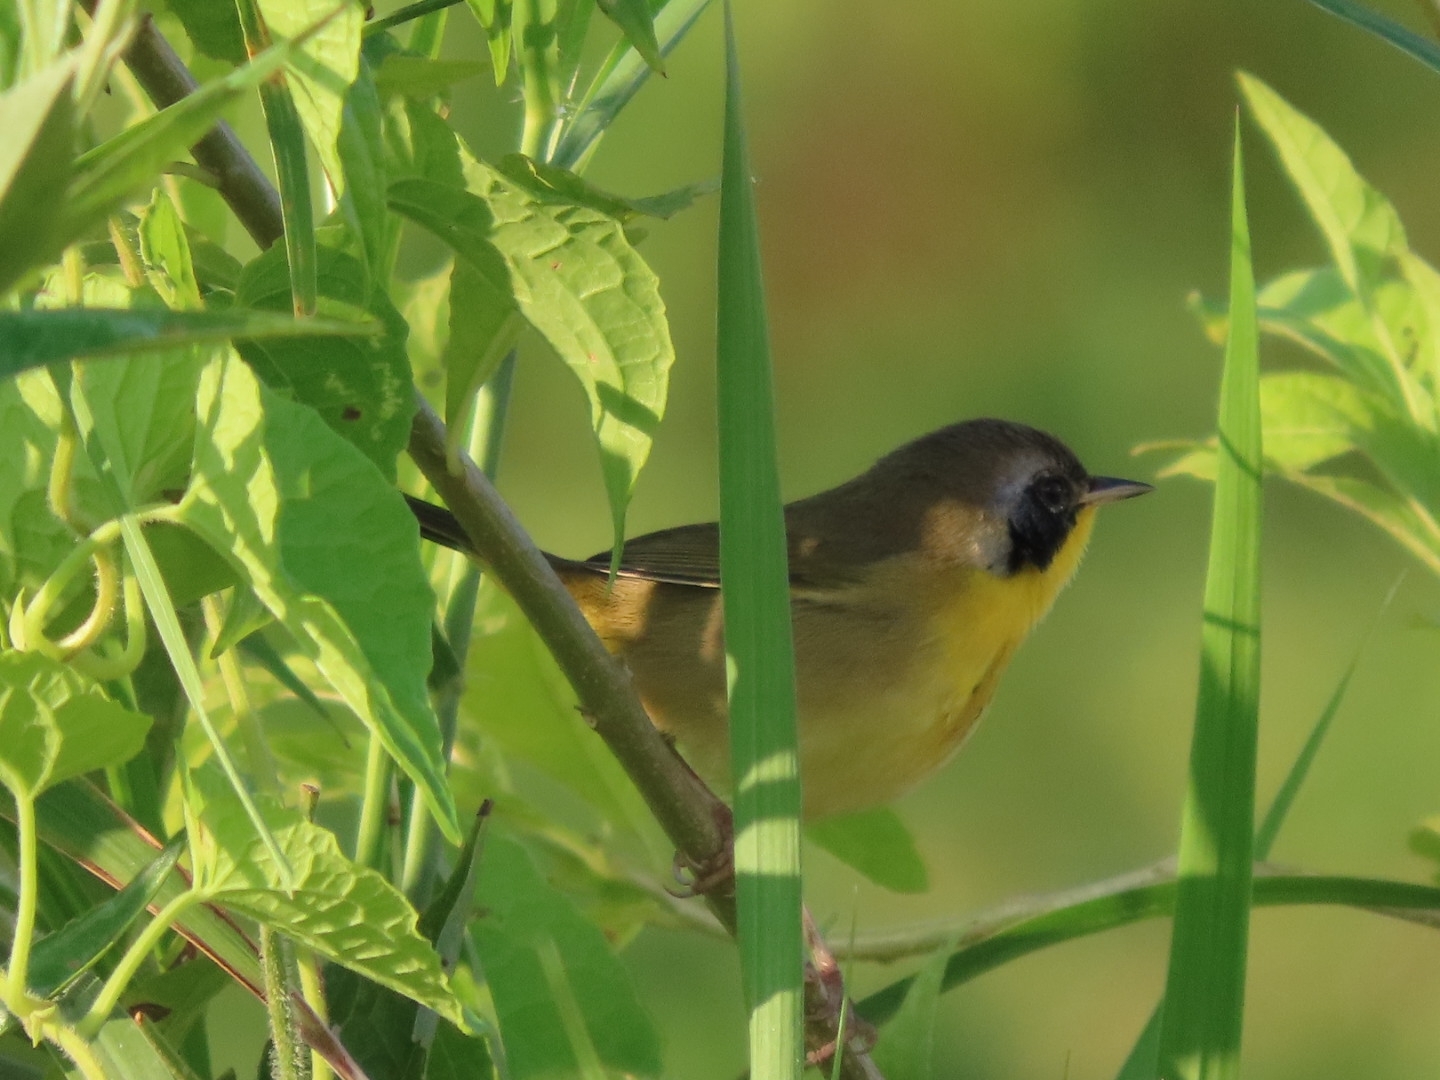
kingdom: Animalia
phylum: Chordata
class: Aves
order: Passeriformes
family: Parulidae
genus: Geothlypis
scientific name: Geothlypis trichas
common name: Common yellowthroat
